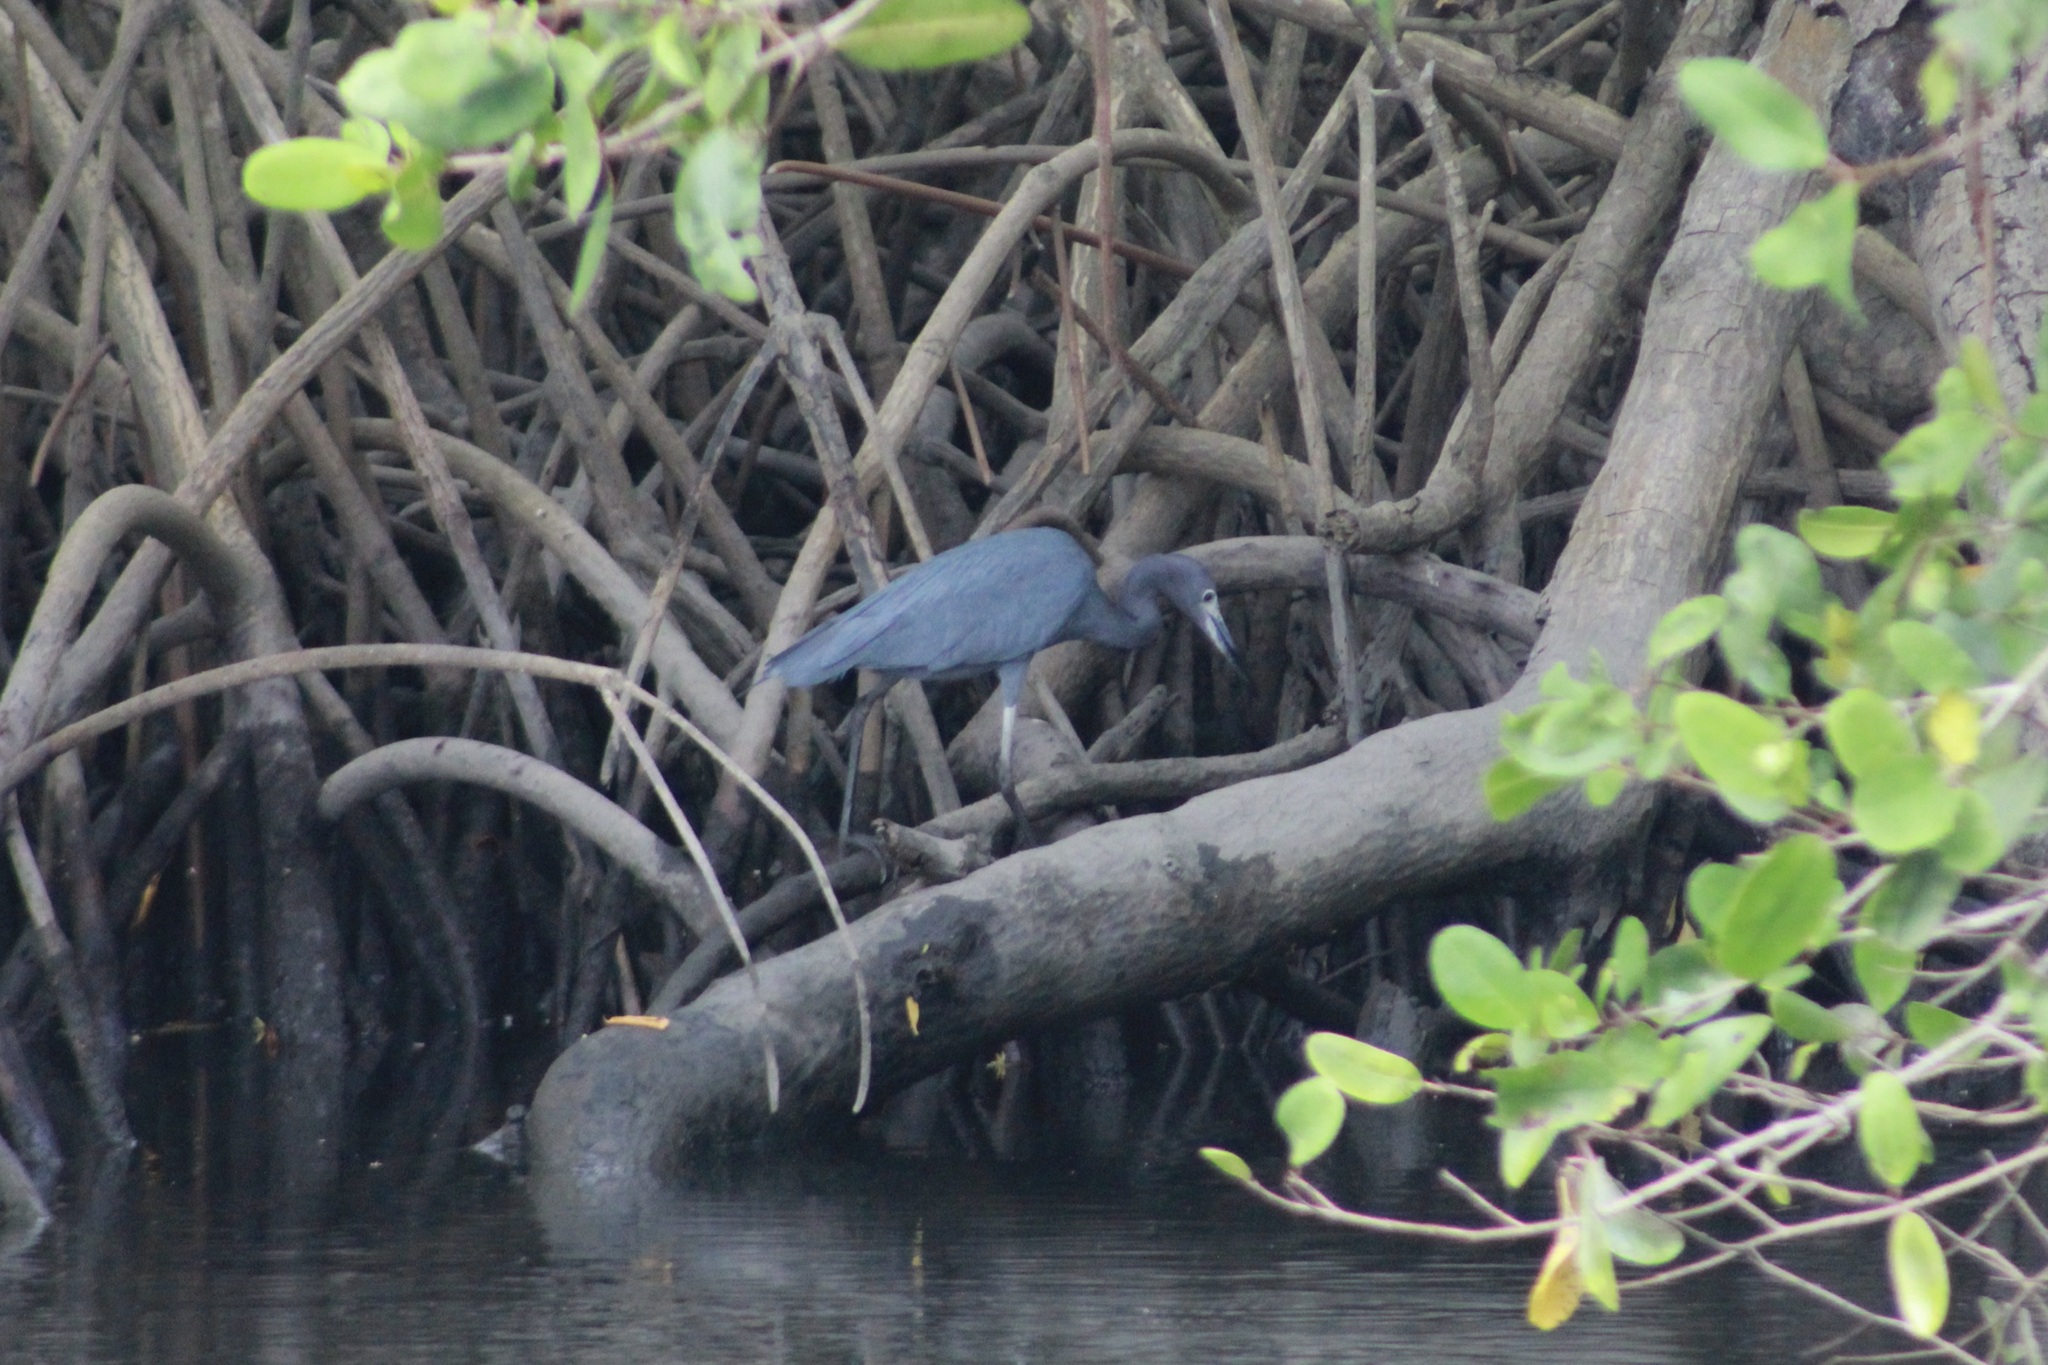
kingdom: Animalia
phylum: Chordata
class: Aves
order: Pelecaniformes
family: Ardeidae
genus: Egretta
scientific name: Egretta caerulea
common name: Little blue heron
